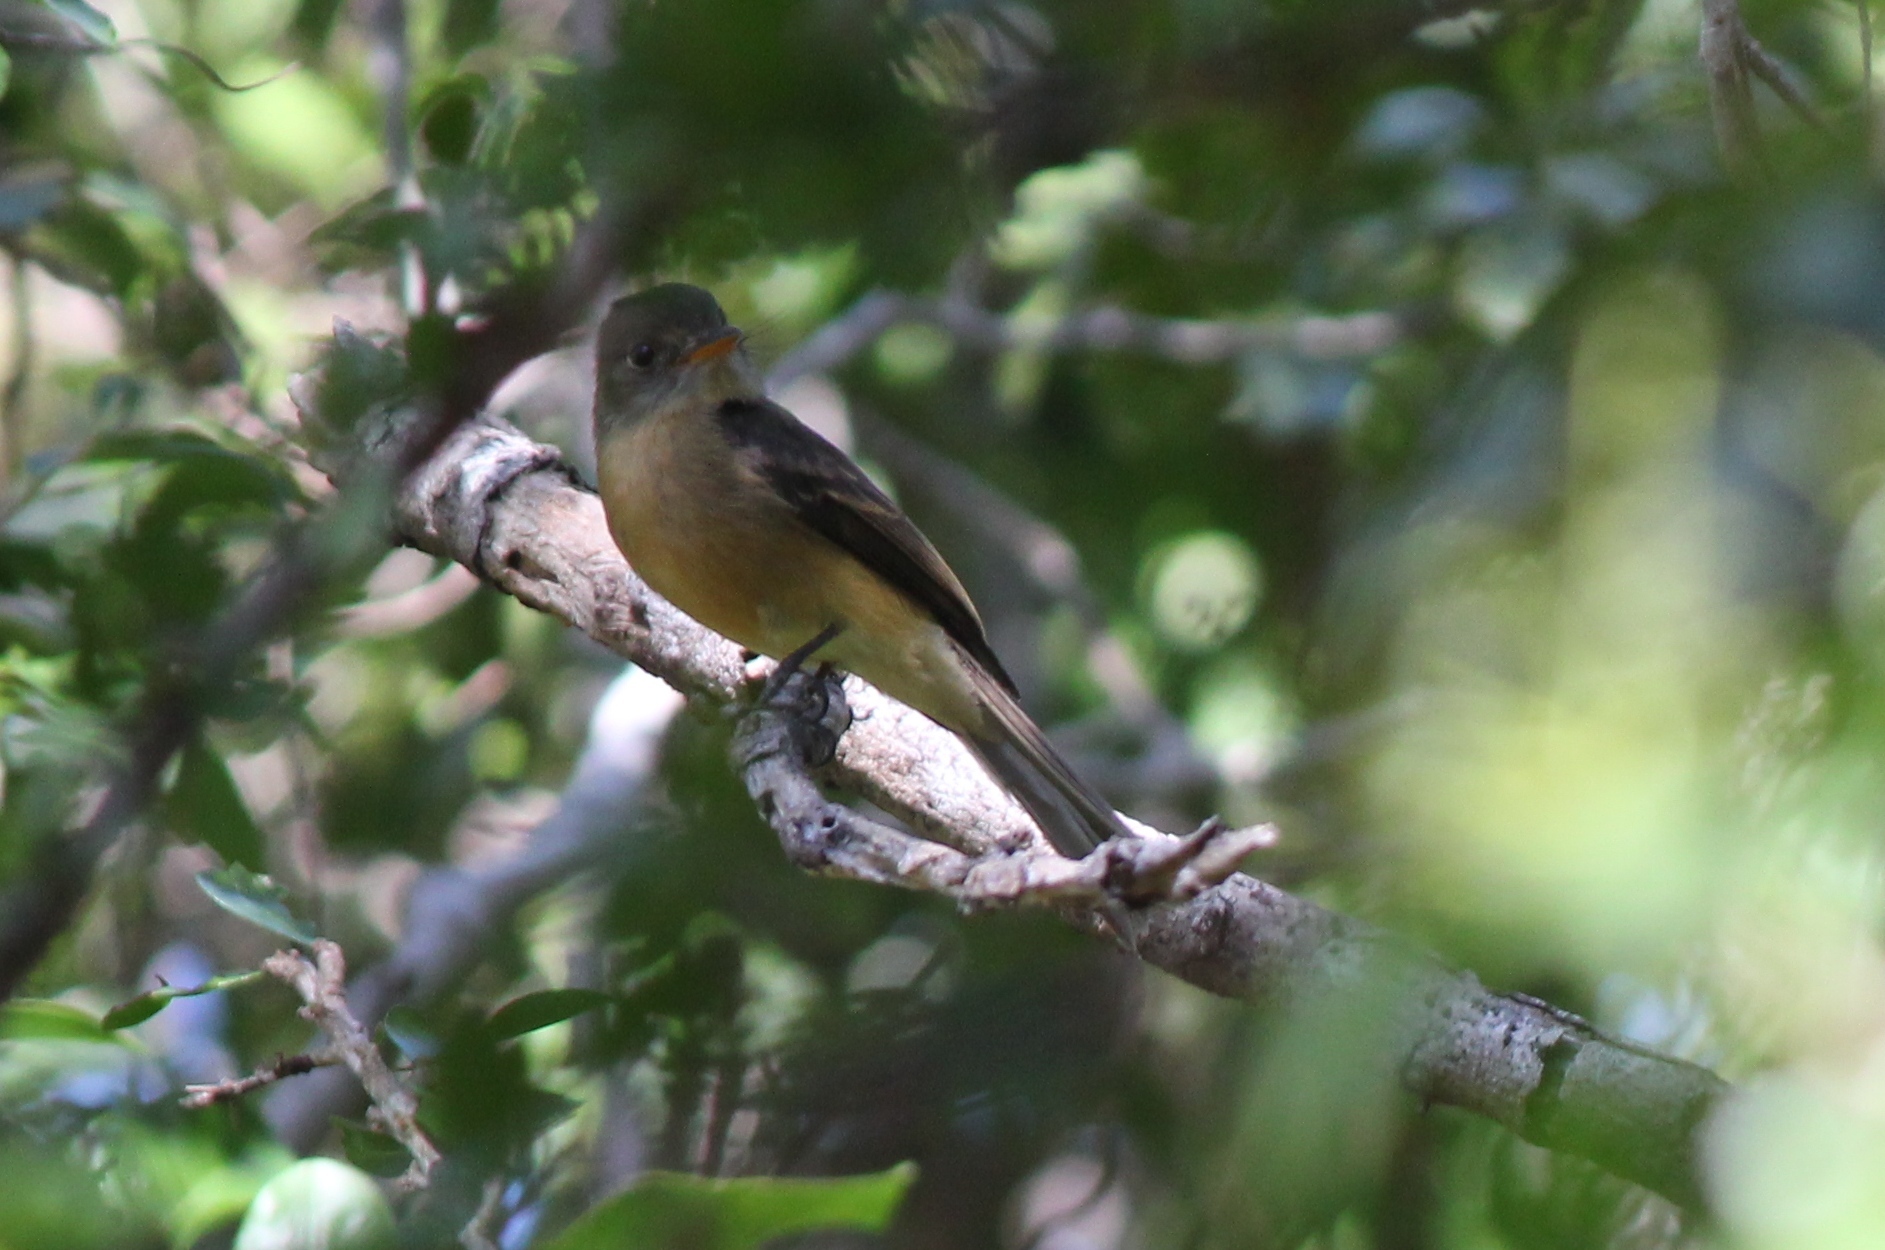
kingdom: Animalia
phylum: Chordata
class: Aves
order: Passeriformes
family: Tyrannidae
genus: Contopus
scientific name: Contopus latirostris
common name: Lesser antillean pewee
